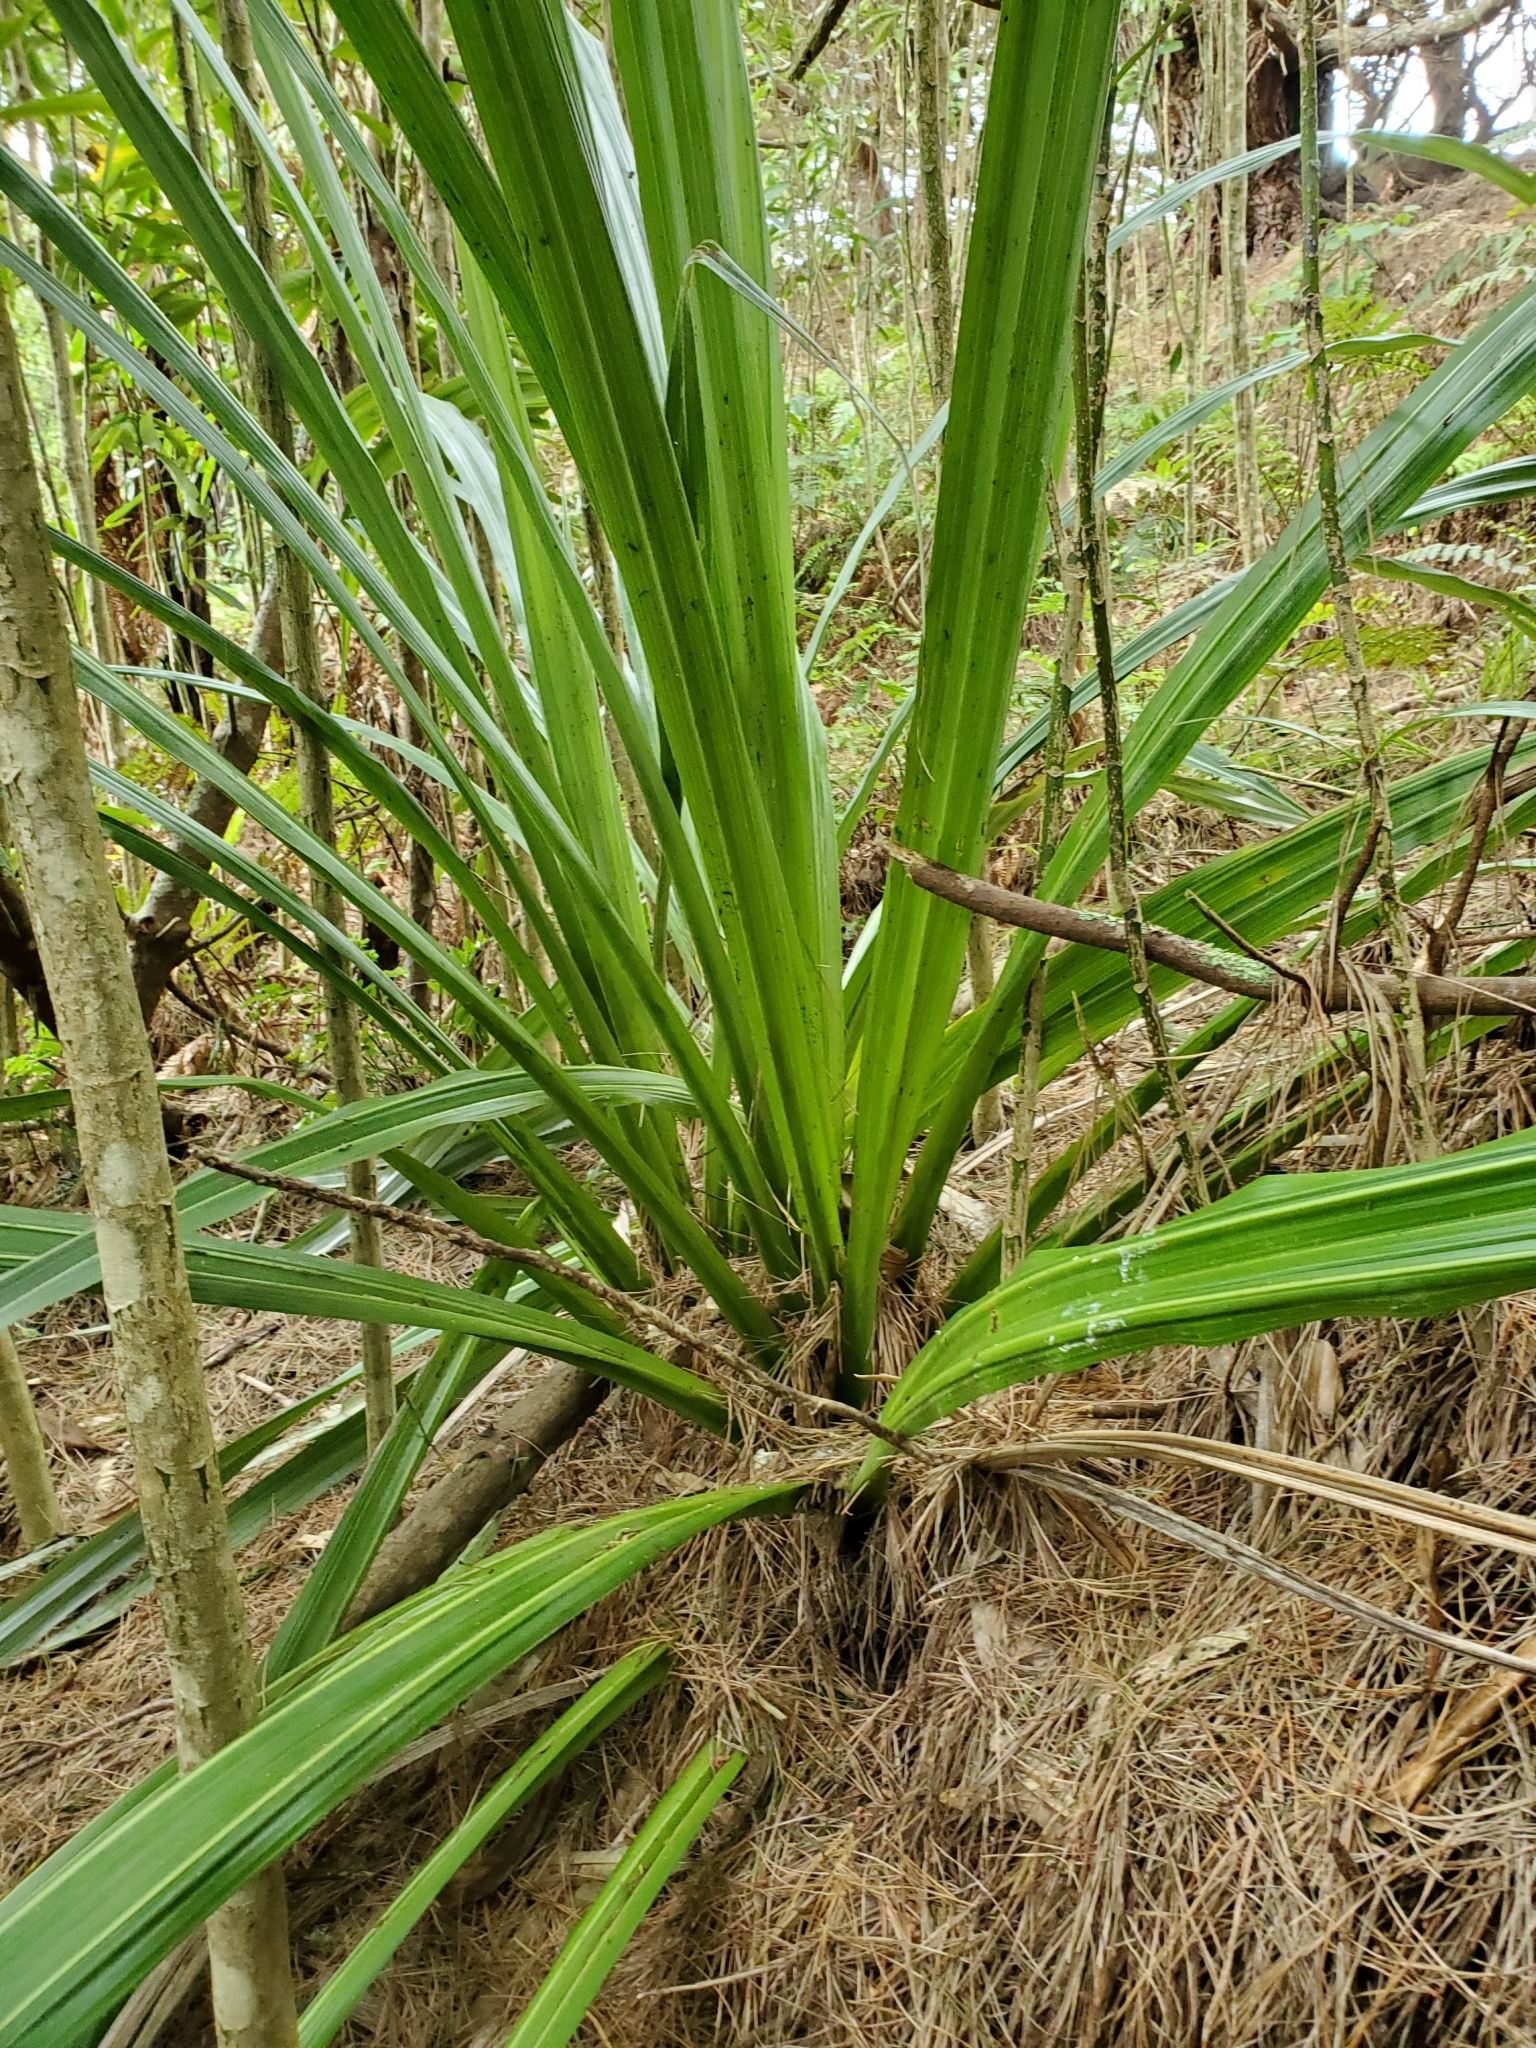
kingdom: Plantae
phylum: Tracheophyta
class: Liliopsida
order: Asparagales
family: Asteliaceae
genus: Astelia
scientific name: Astelia chathamica
